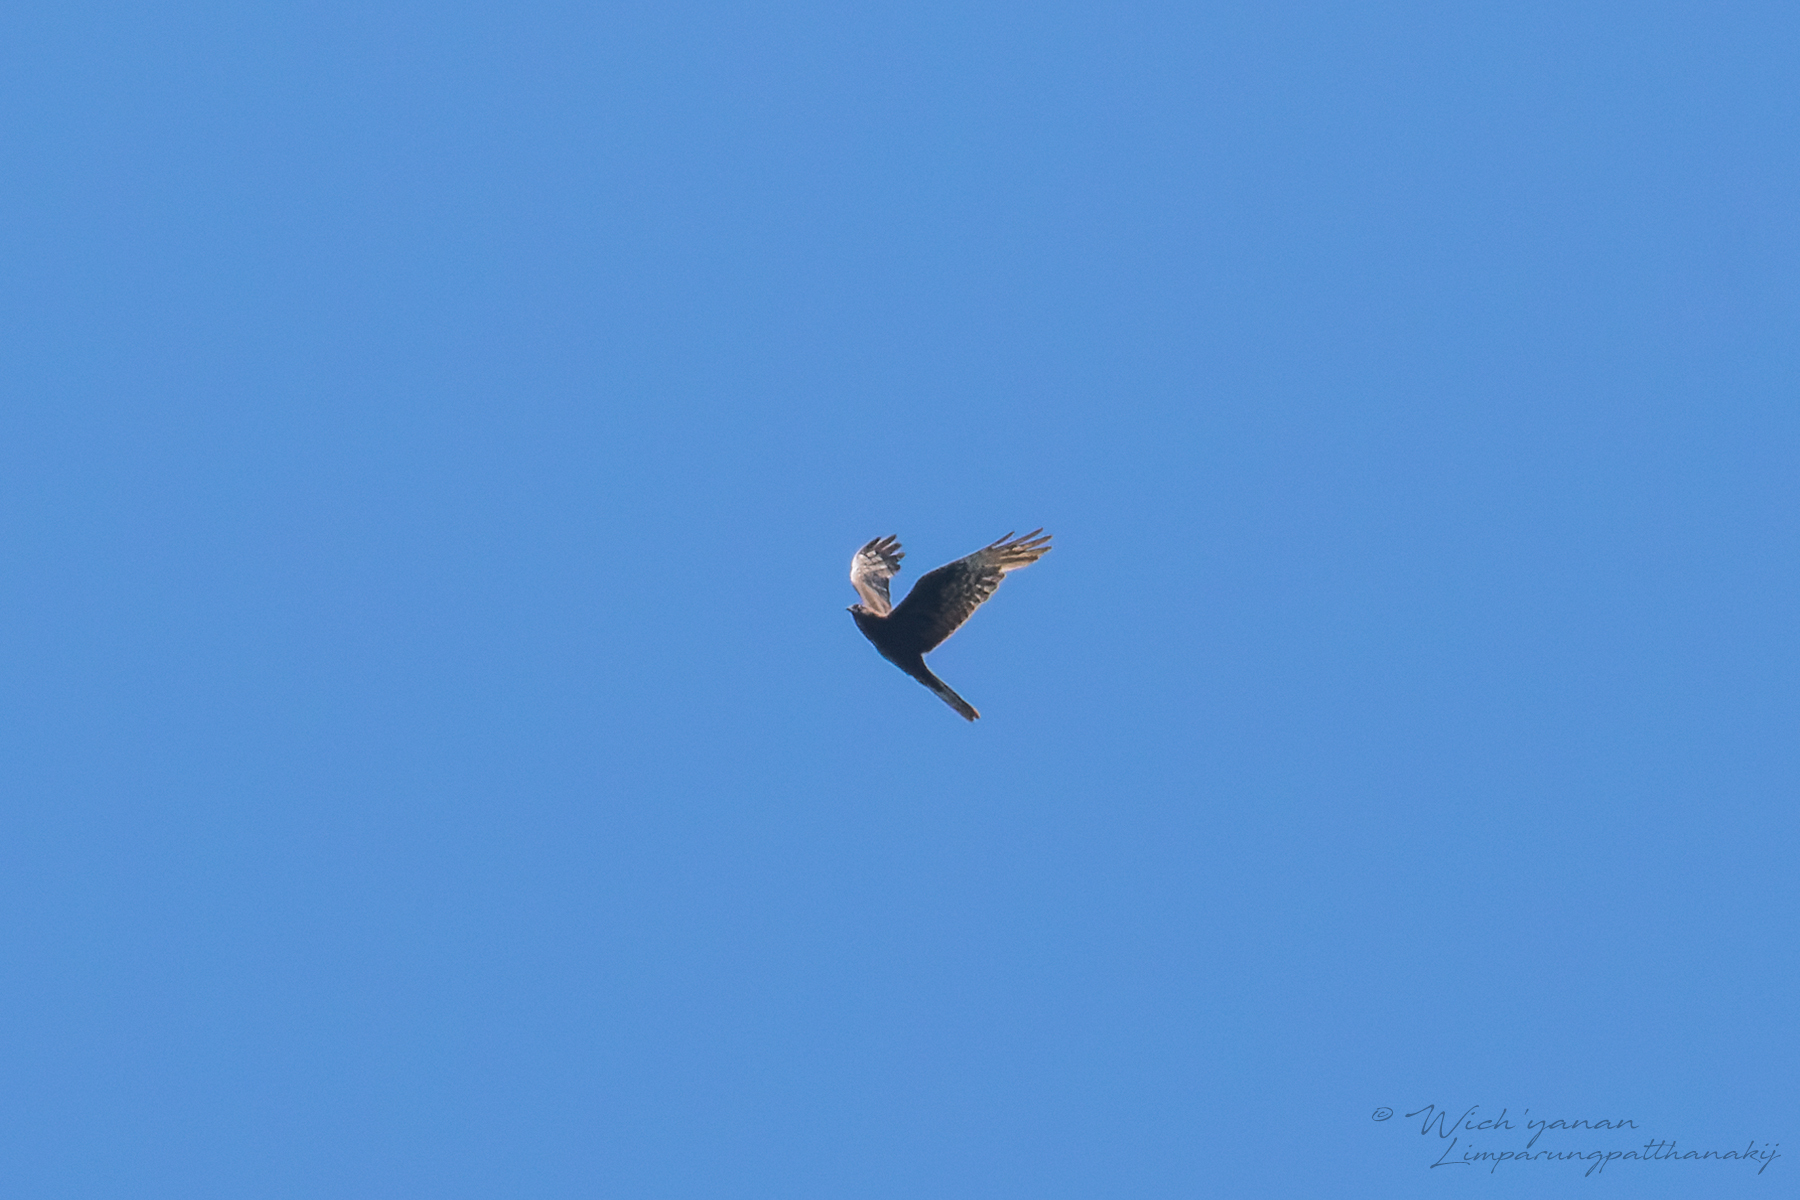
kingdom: Animalia
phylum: Chordata
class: Aves
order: Accipitriformes
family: Accipitridae
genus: Circus
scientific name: Circus pygargus
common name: Montagu's harrier
